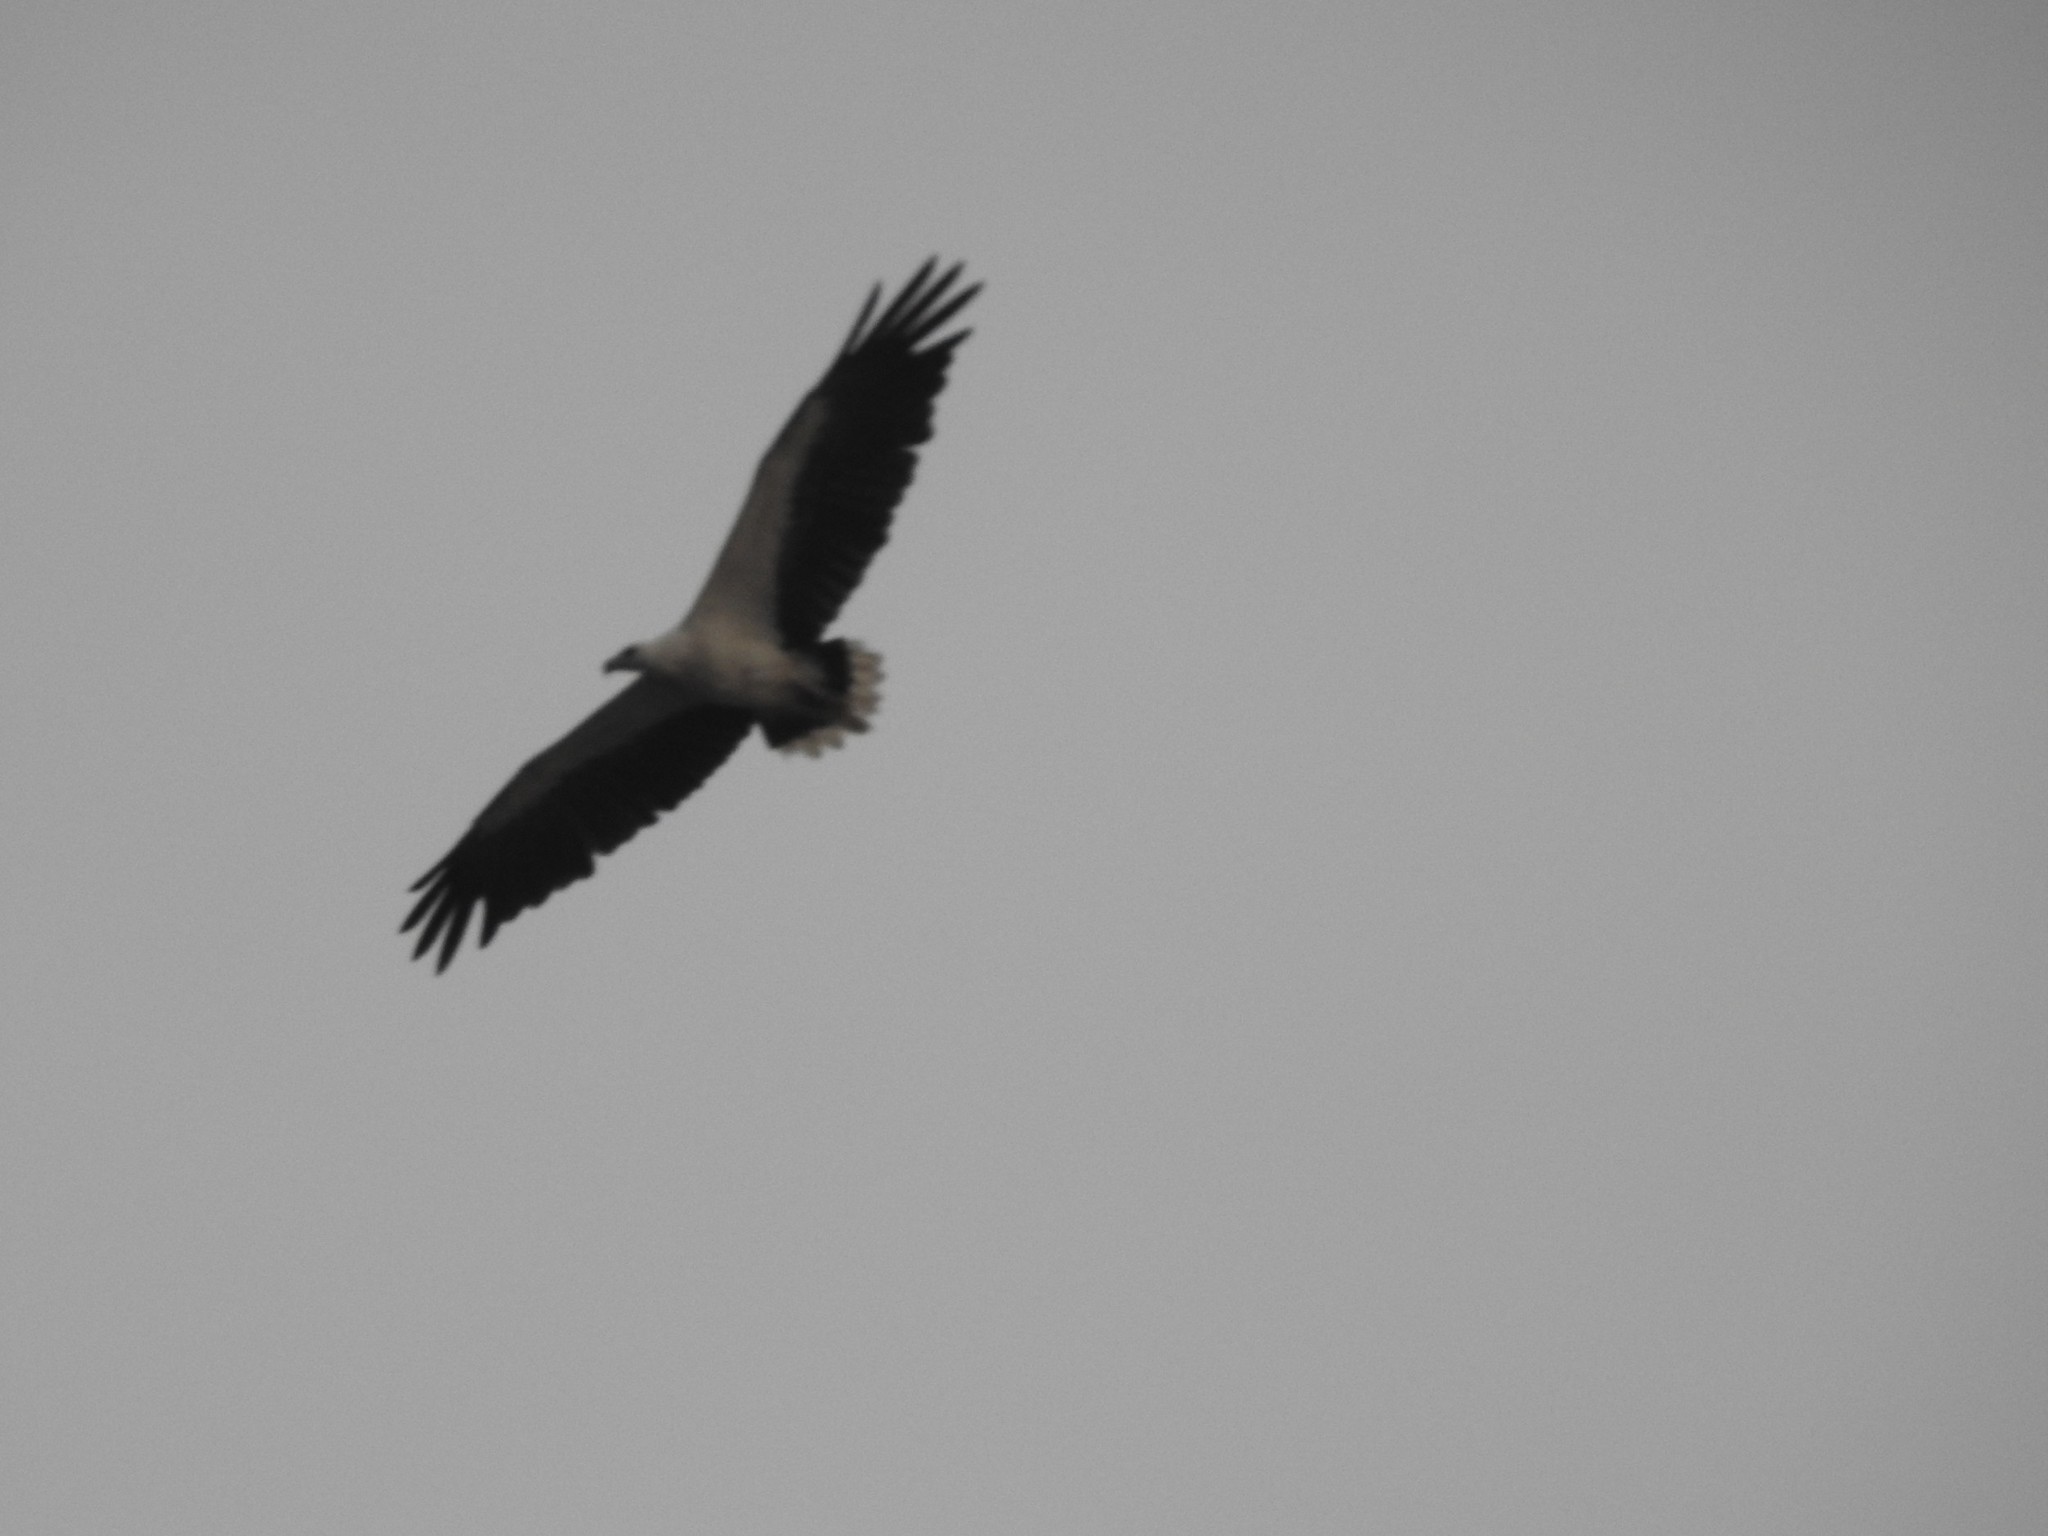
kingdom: Animalia
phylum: Chordata
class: Aves
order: Accipitriformes
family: Accipitridae
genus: Haliaeetus
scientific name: Haliaeetus leucogaster
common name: White-bellied sea eagle
